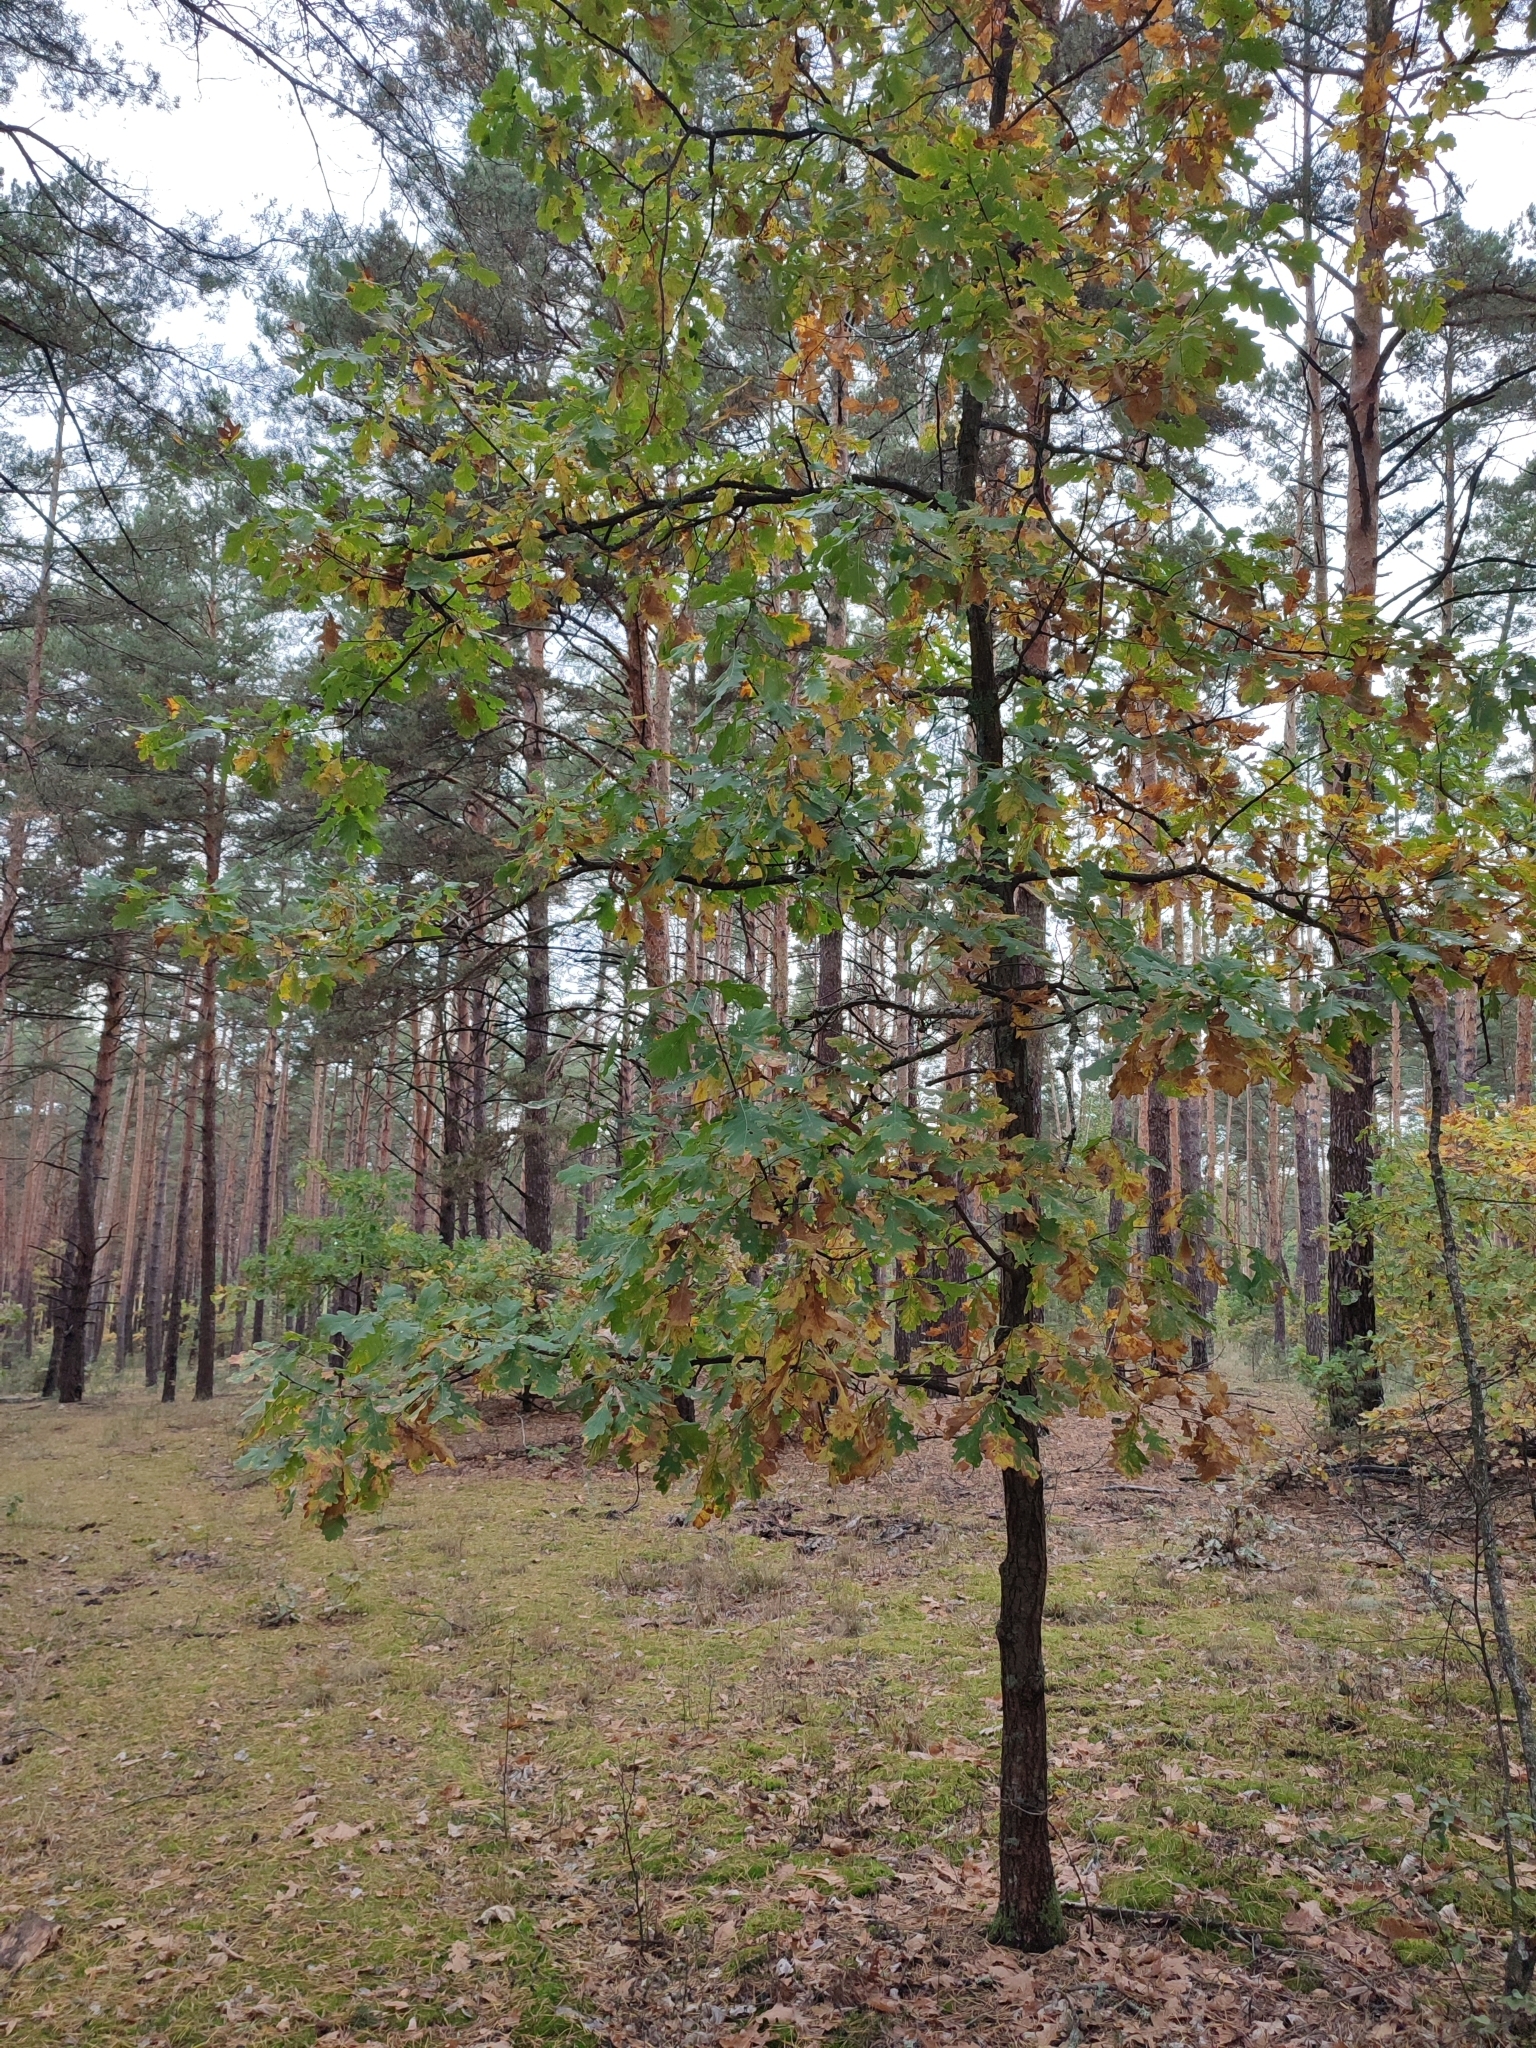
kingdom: Plantae
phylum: Tracheophyta
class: Magnoliopsida
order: Fagales
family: Fagaceae
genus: Quercus
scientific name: Quercus robur
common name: Pedunculate oak
